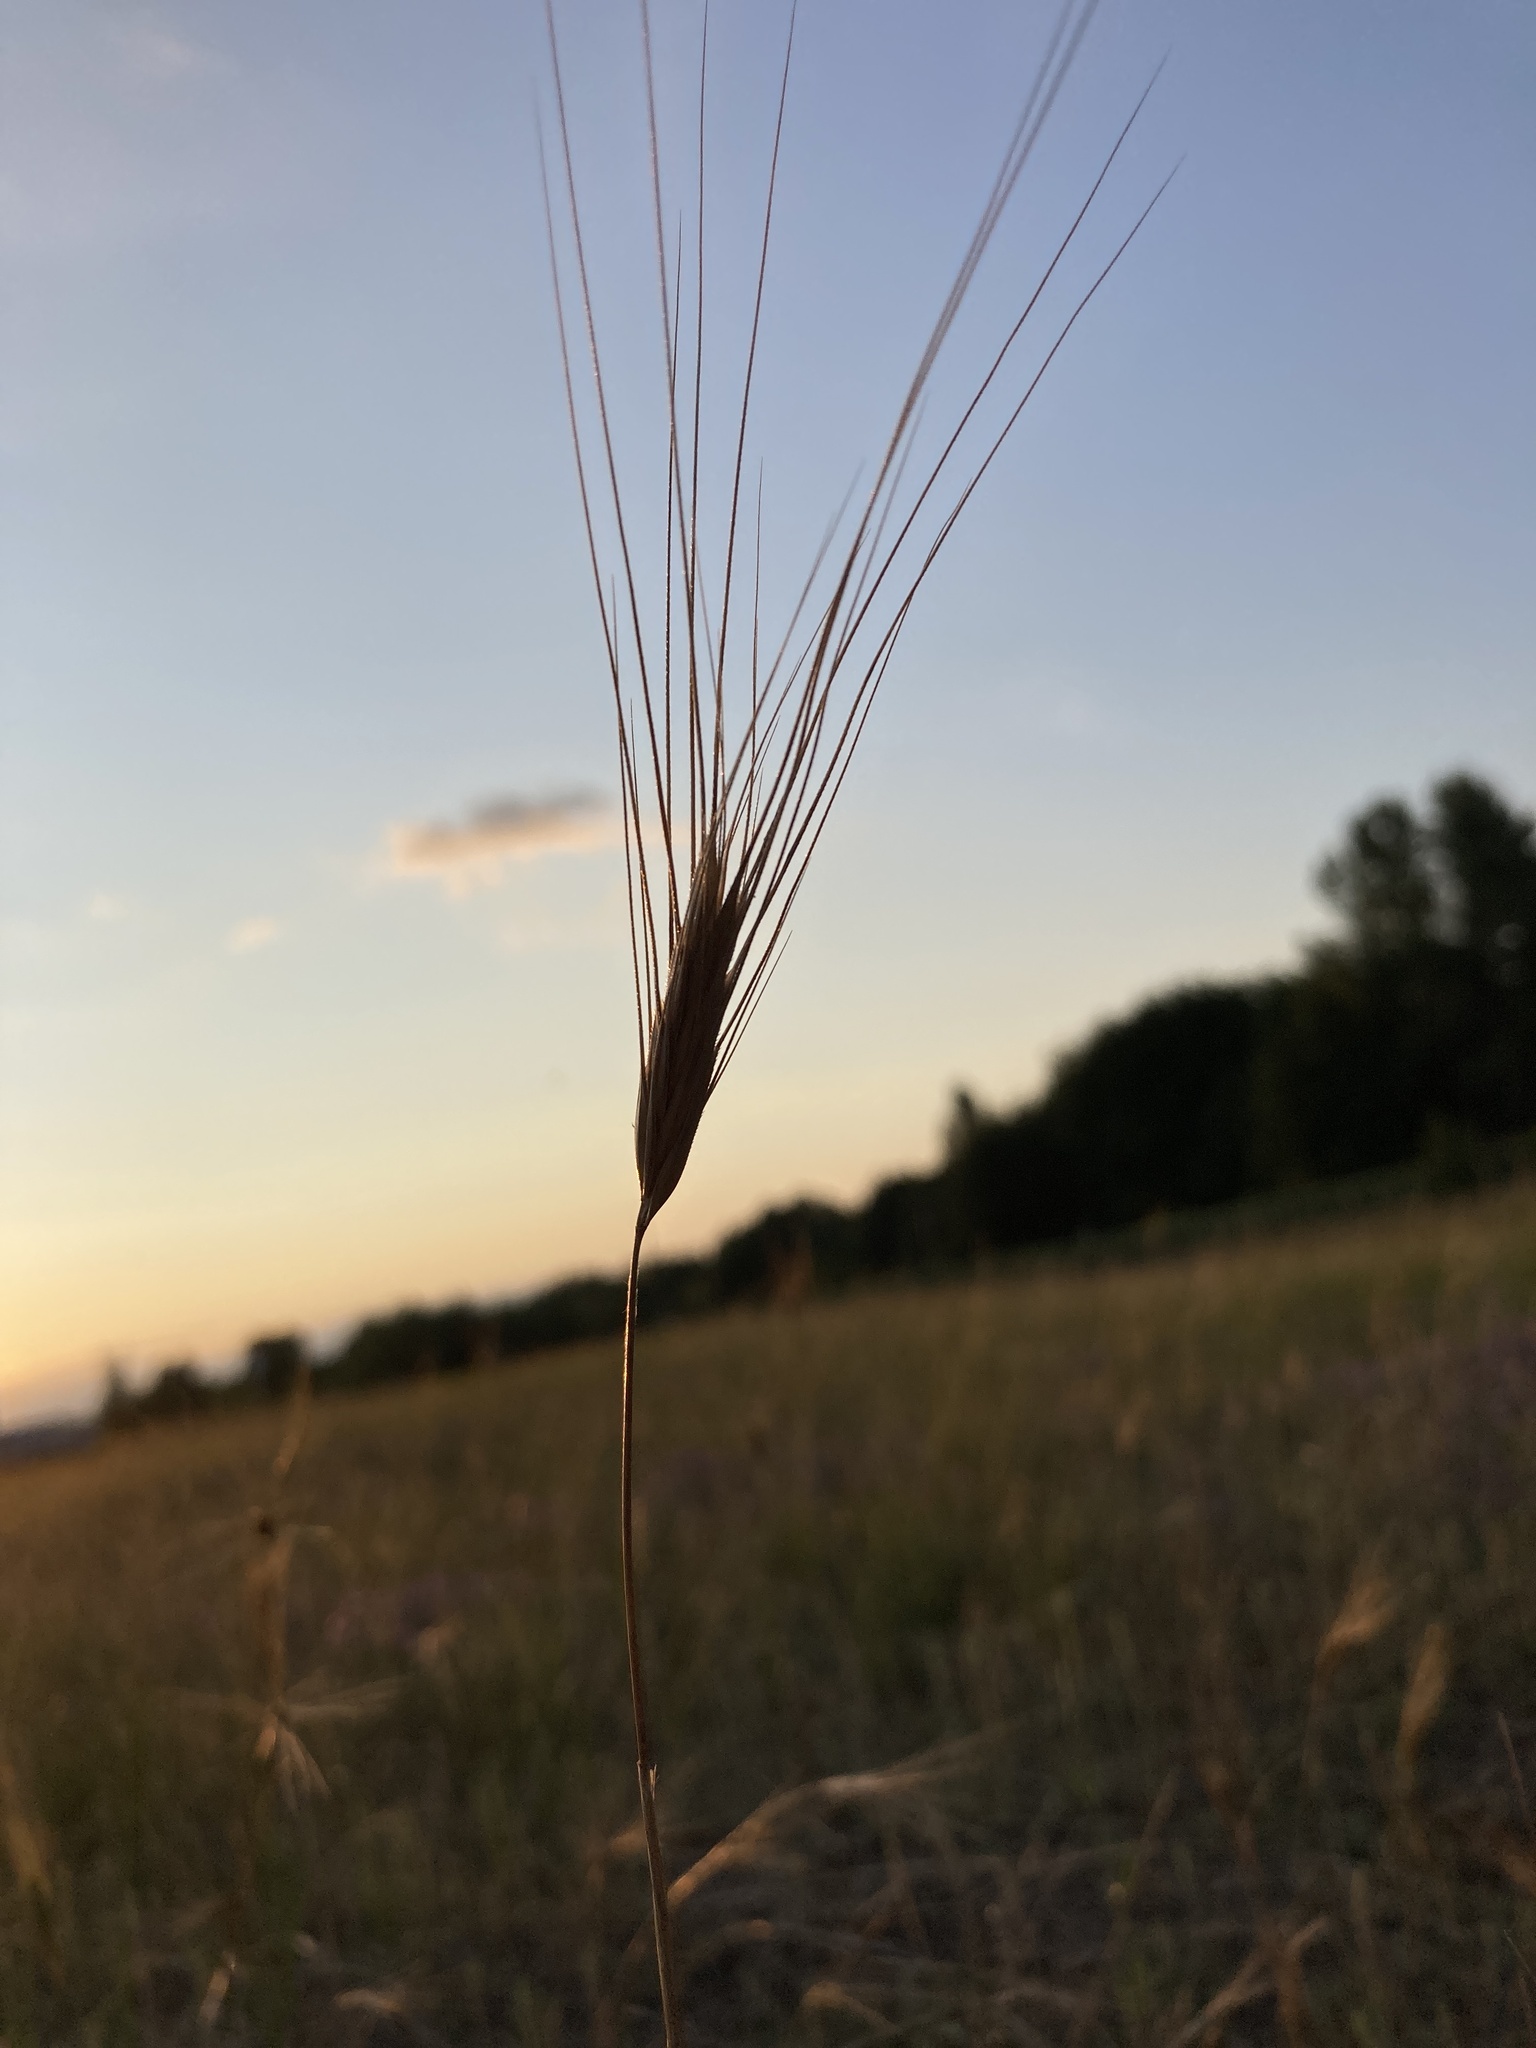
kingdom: Plantae
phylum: Tracheophyta
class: Liliopsida
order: Poales
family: Poaceae
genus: Secale
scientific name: Secale sylvestre
